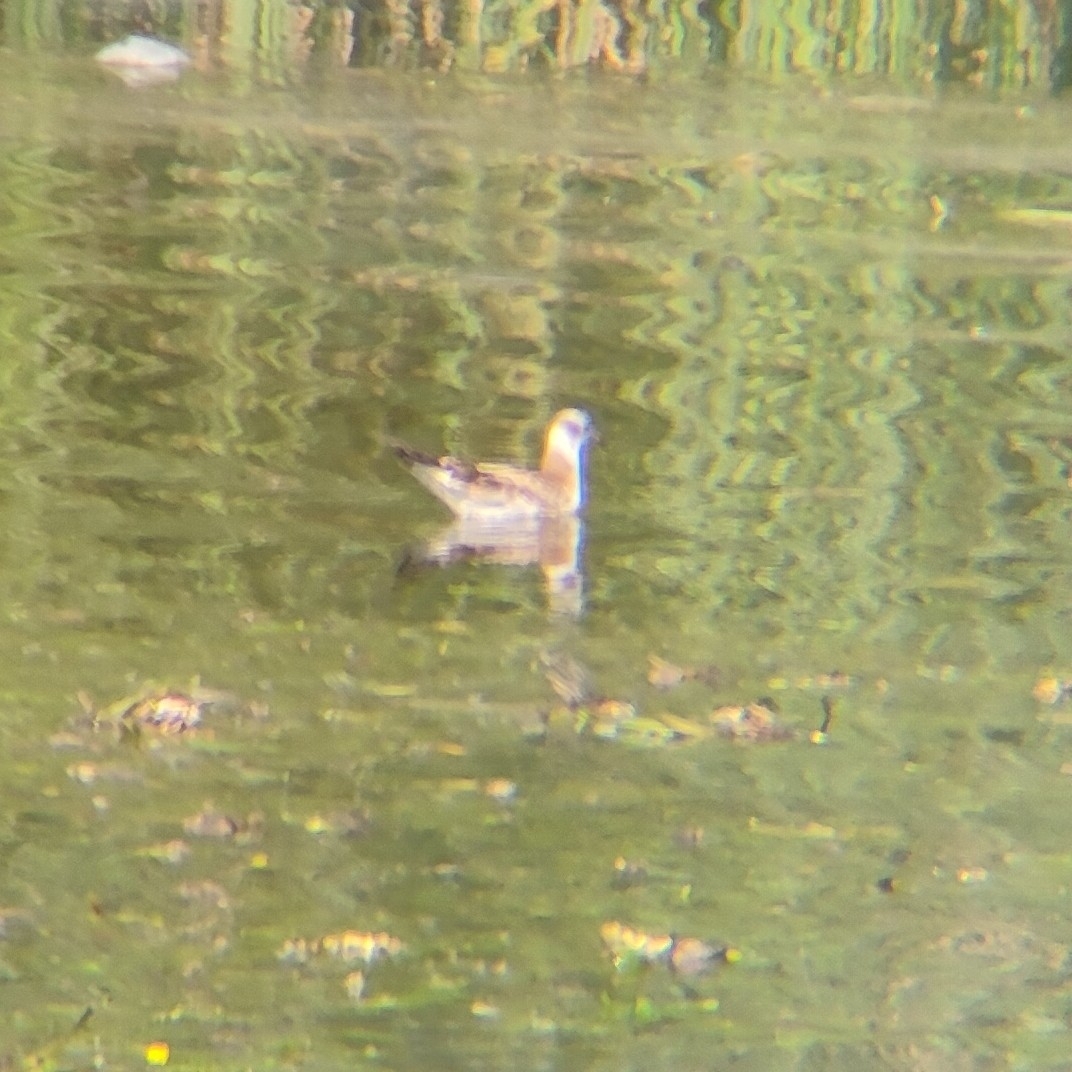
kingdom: Animalia
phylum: Chordata
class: Aves
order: Charadriiformes
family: Laridae
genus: Chroicocephalus
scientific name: Chroicocephalus ridibundus
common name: Black-headed gull
